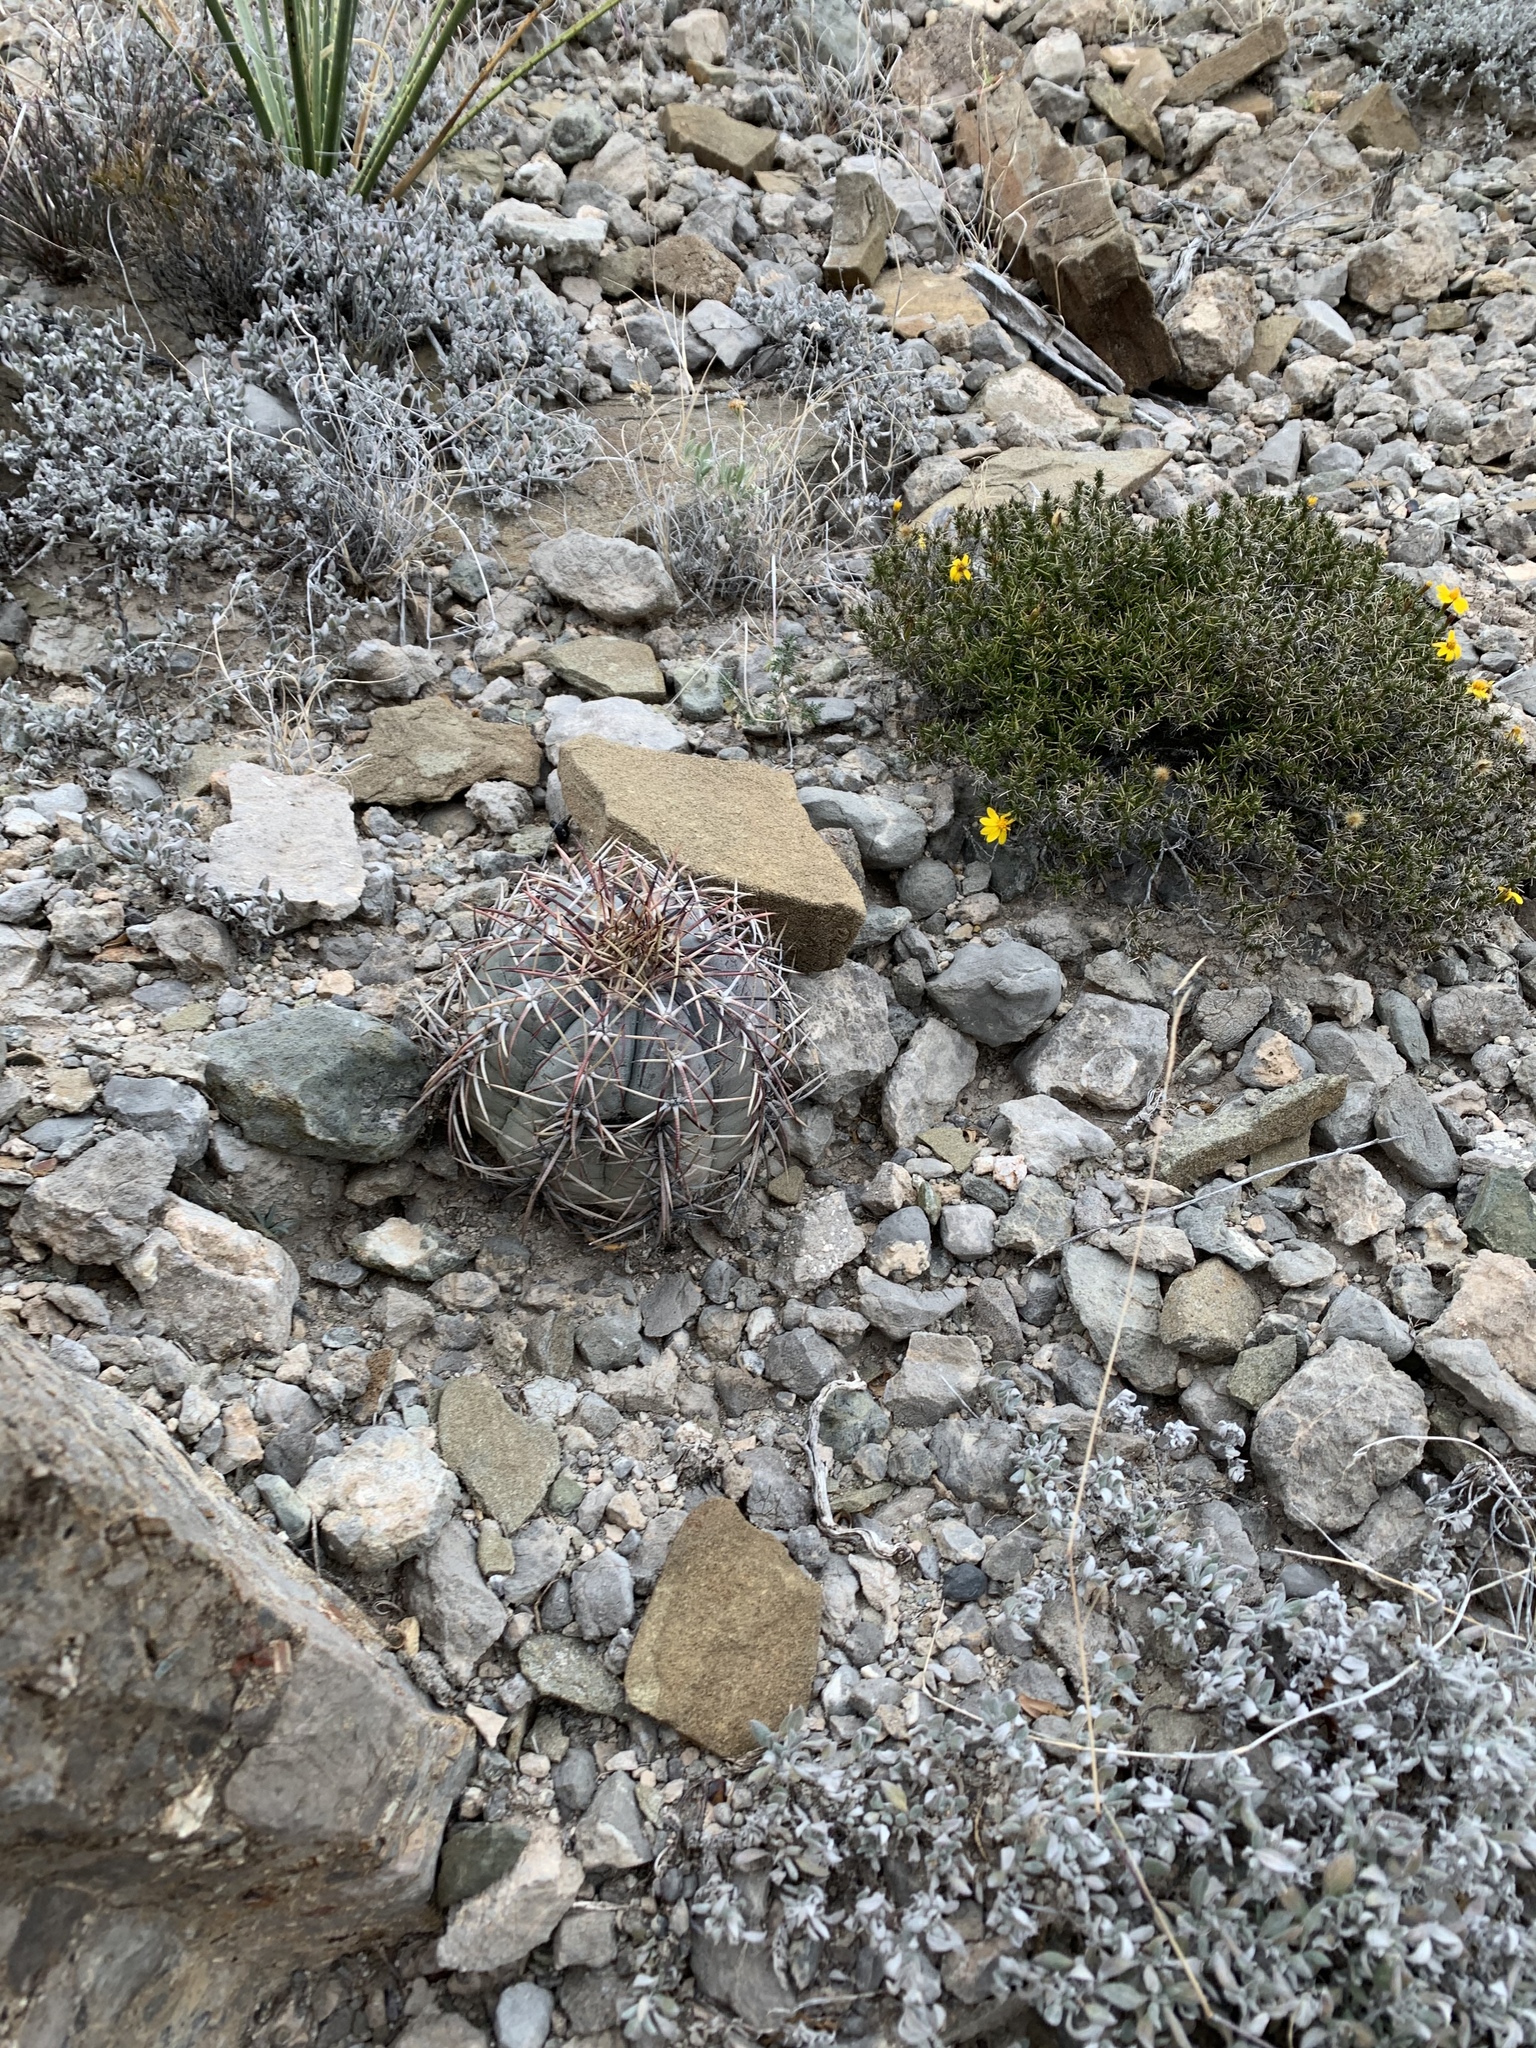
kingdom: Plantae
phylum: Tracheophyta
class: Magnoliopsida
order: Caryophyllales
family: Cactaceae
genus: Echinocactus
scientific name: Echinocactus horizonthalonius
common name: Devilshead
